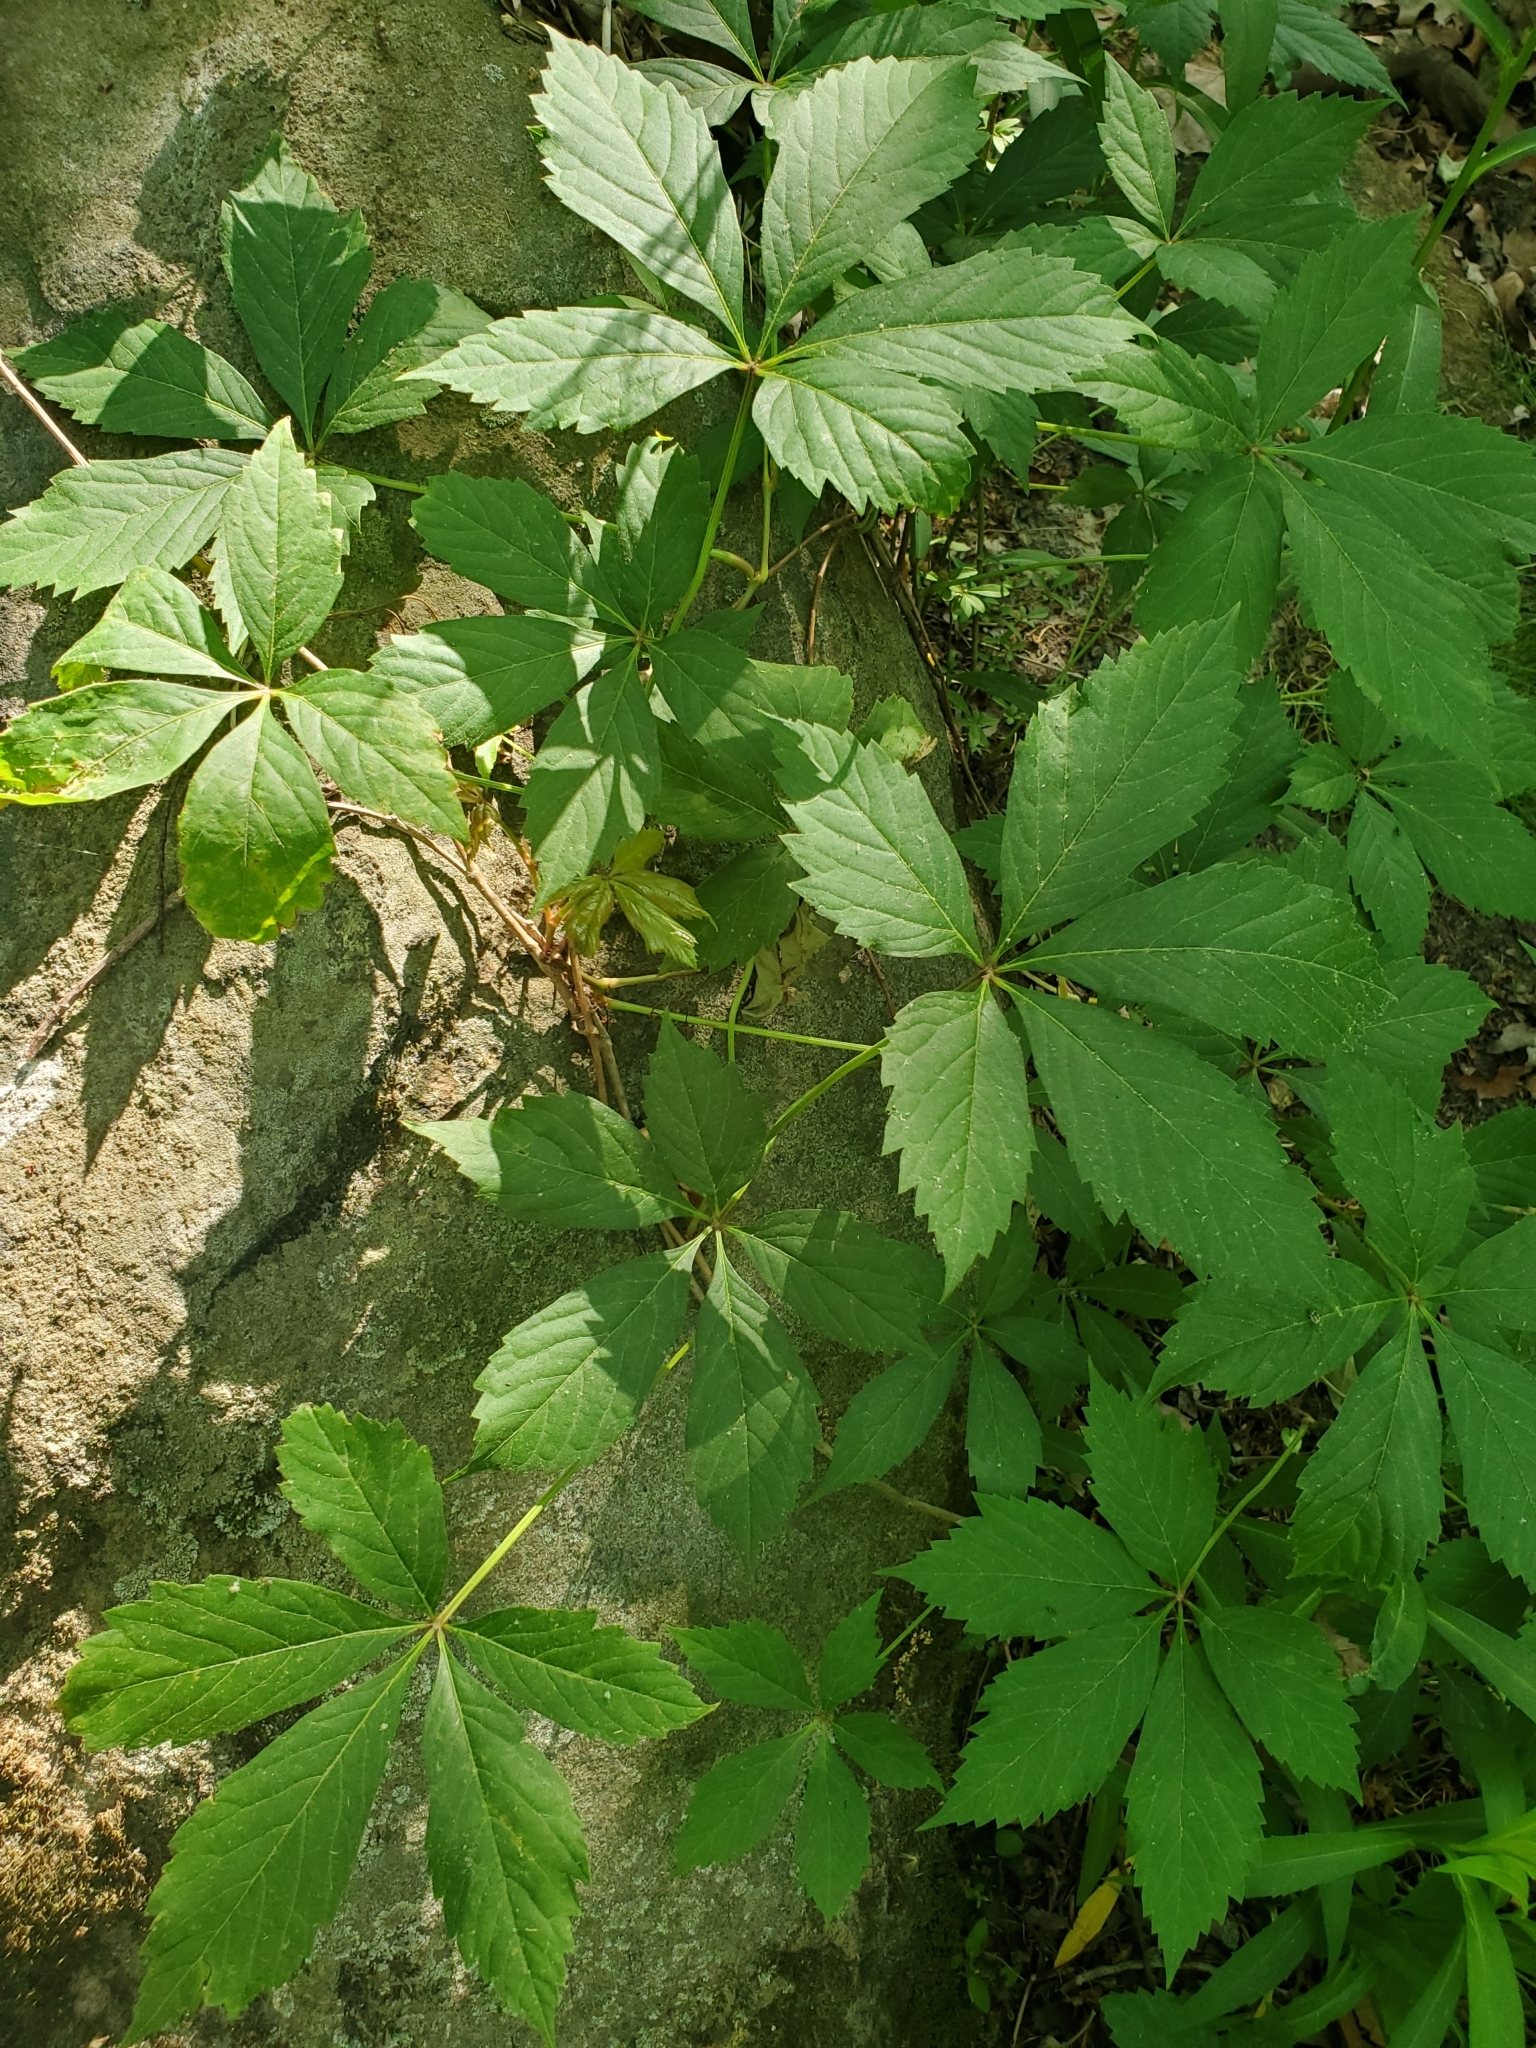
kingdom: Plantae
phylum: Tracheophyta
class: Magnoliopsida
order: Vitales
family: Vitaceae
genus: Parthenocissus
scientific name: Parthenocissus quinquefolia
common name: Virginia-creeper
